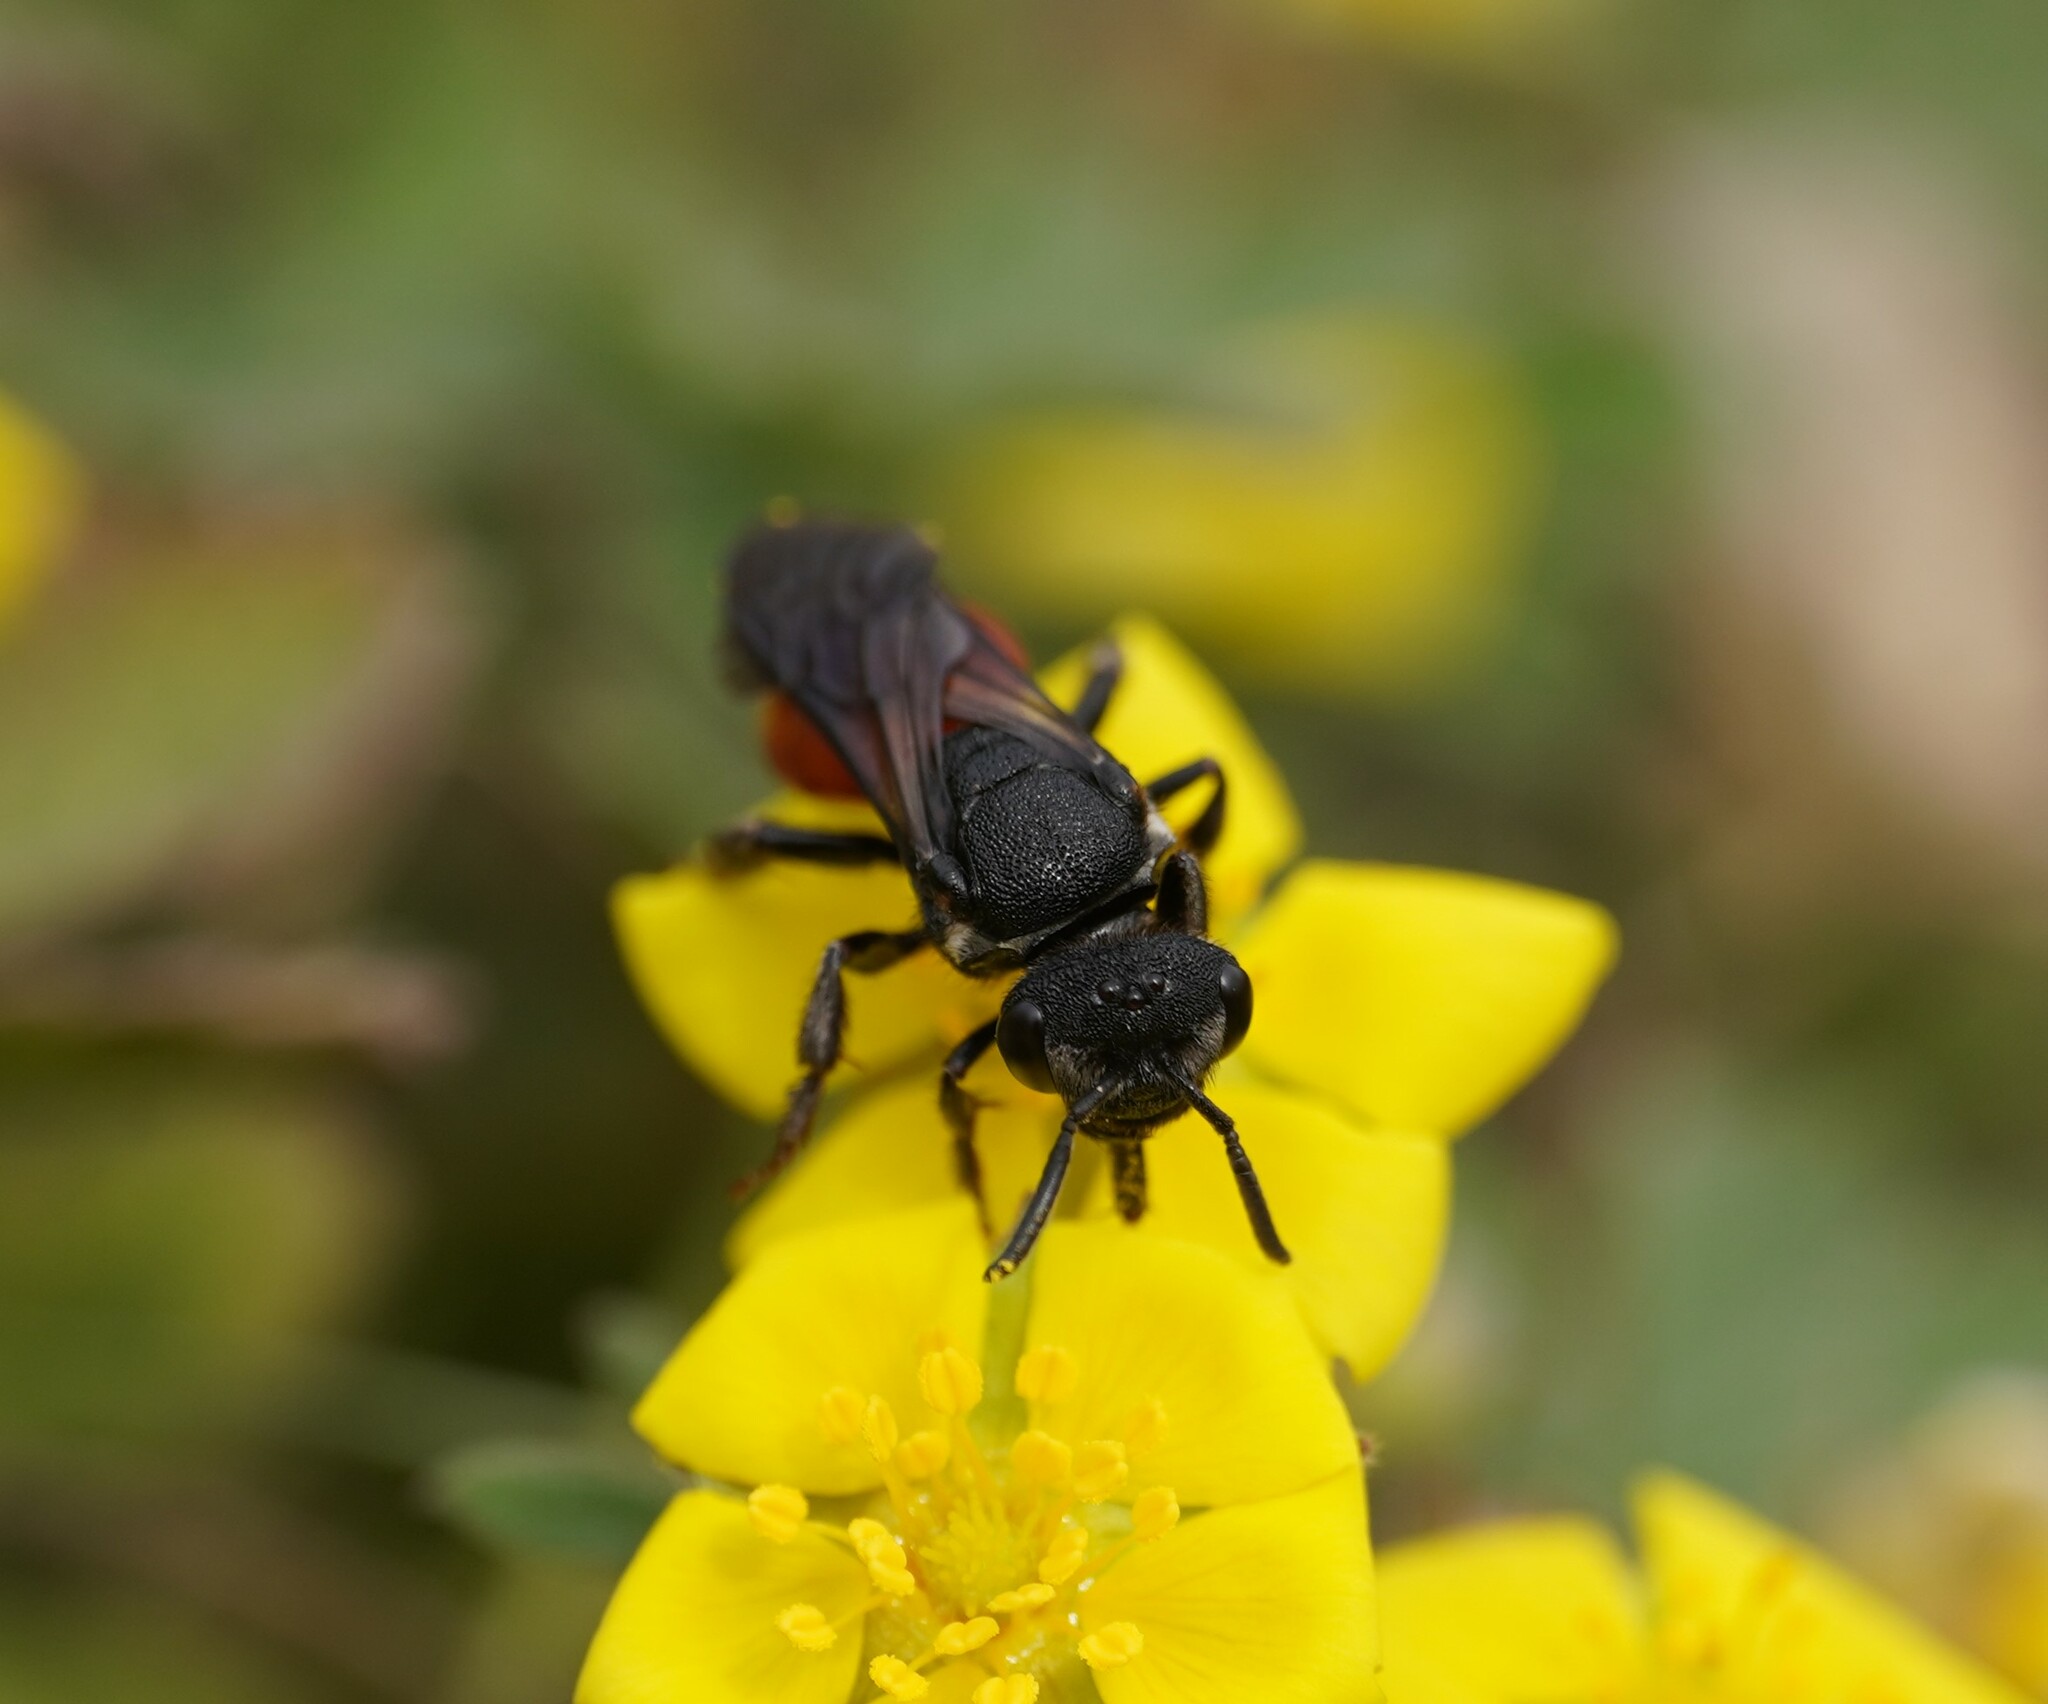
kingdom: Animalia
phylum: Arthropoda
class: Insecta
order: Hymenoptera
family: Halictidae
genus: Sphecodes
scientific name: Sphecodes albilabris
